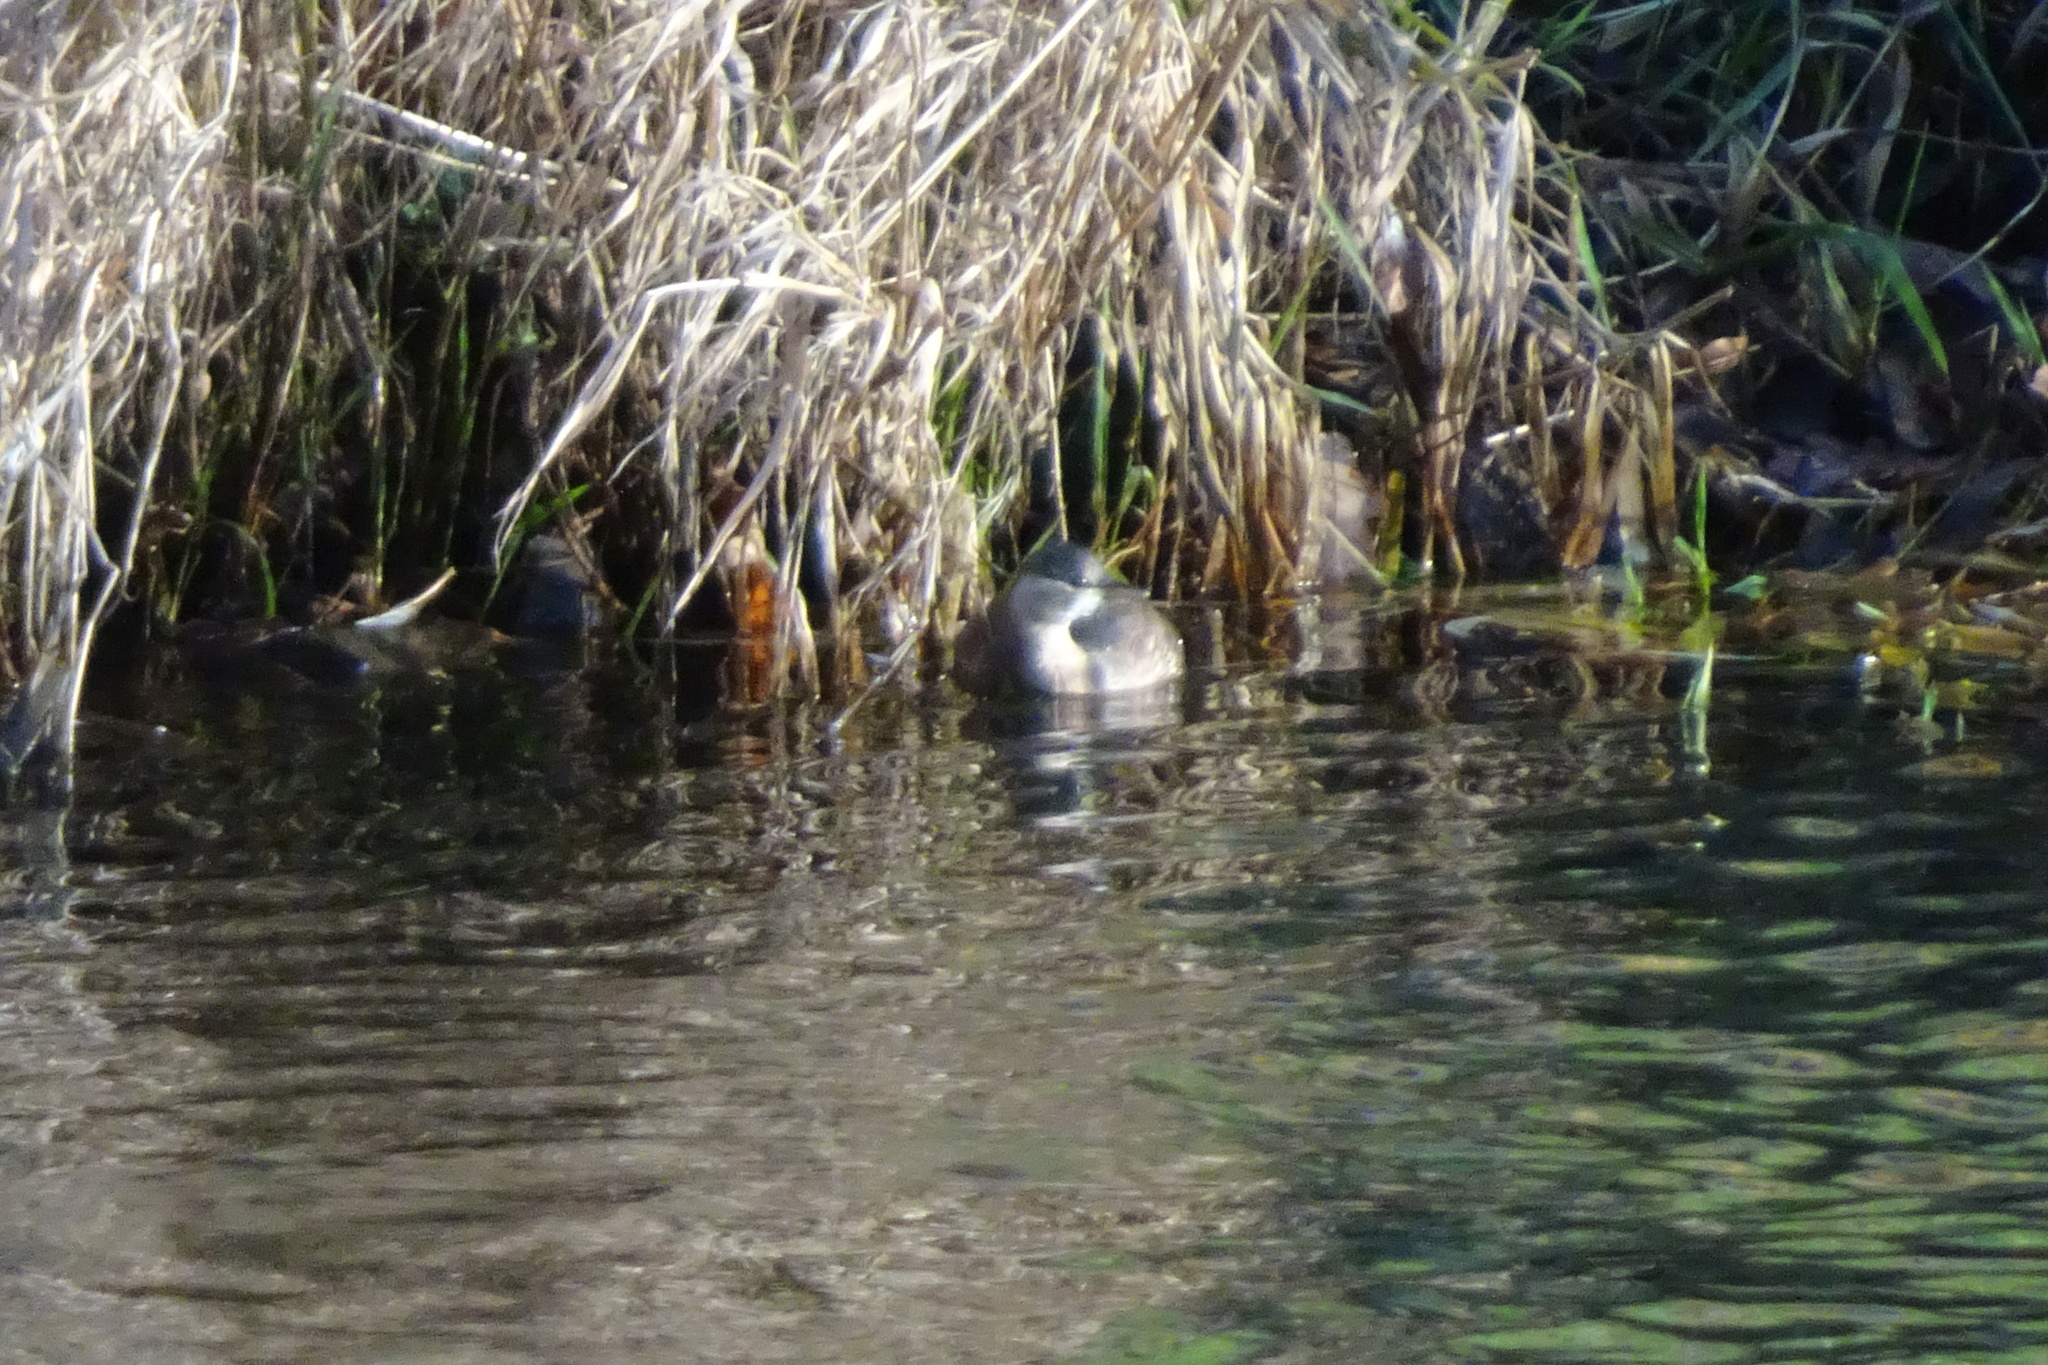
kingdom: Animalia
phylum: Chordata
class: Aves
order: Podicipediformes
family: Podicipedidae
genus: Tachybaptus
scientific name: Tachybaptus ruficollis
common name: Little grebe
